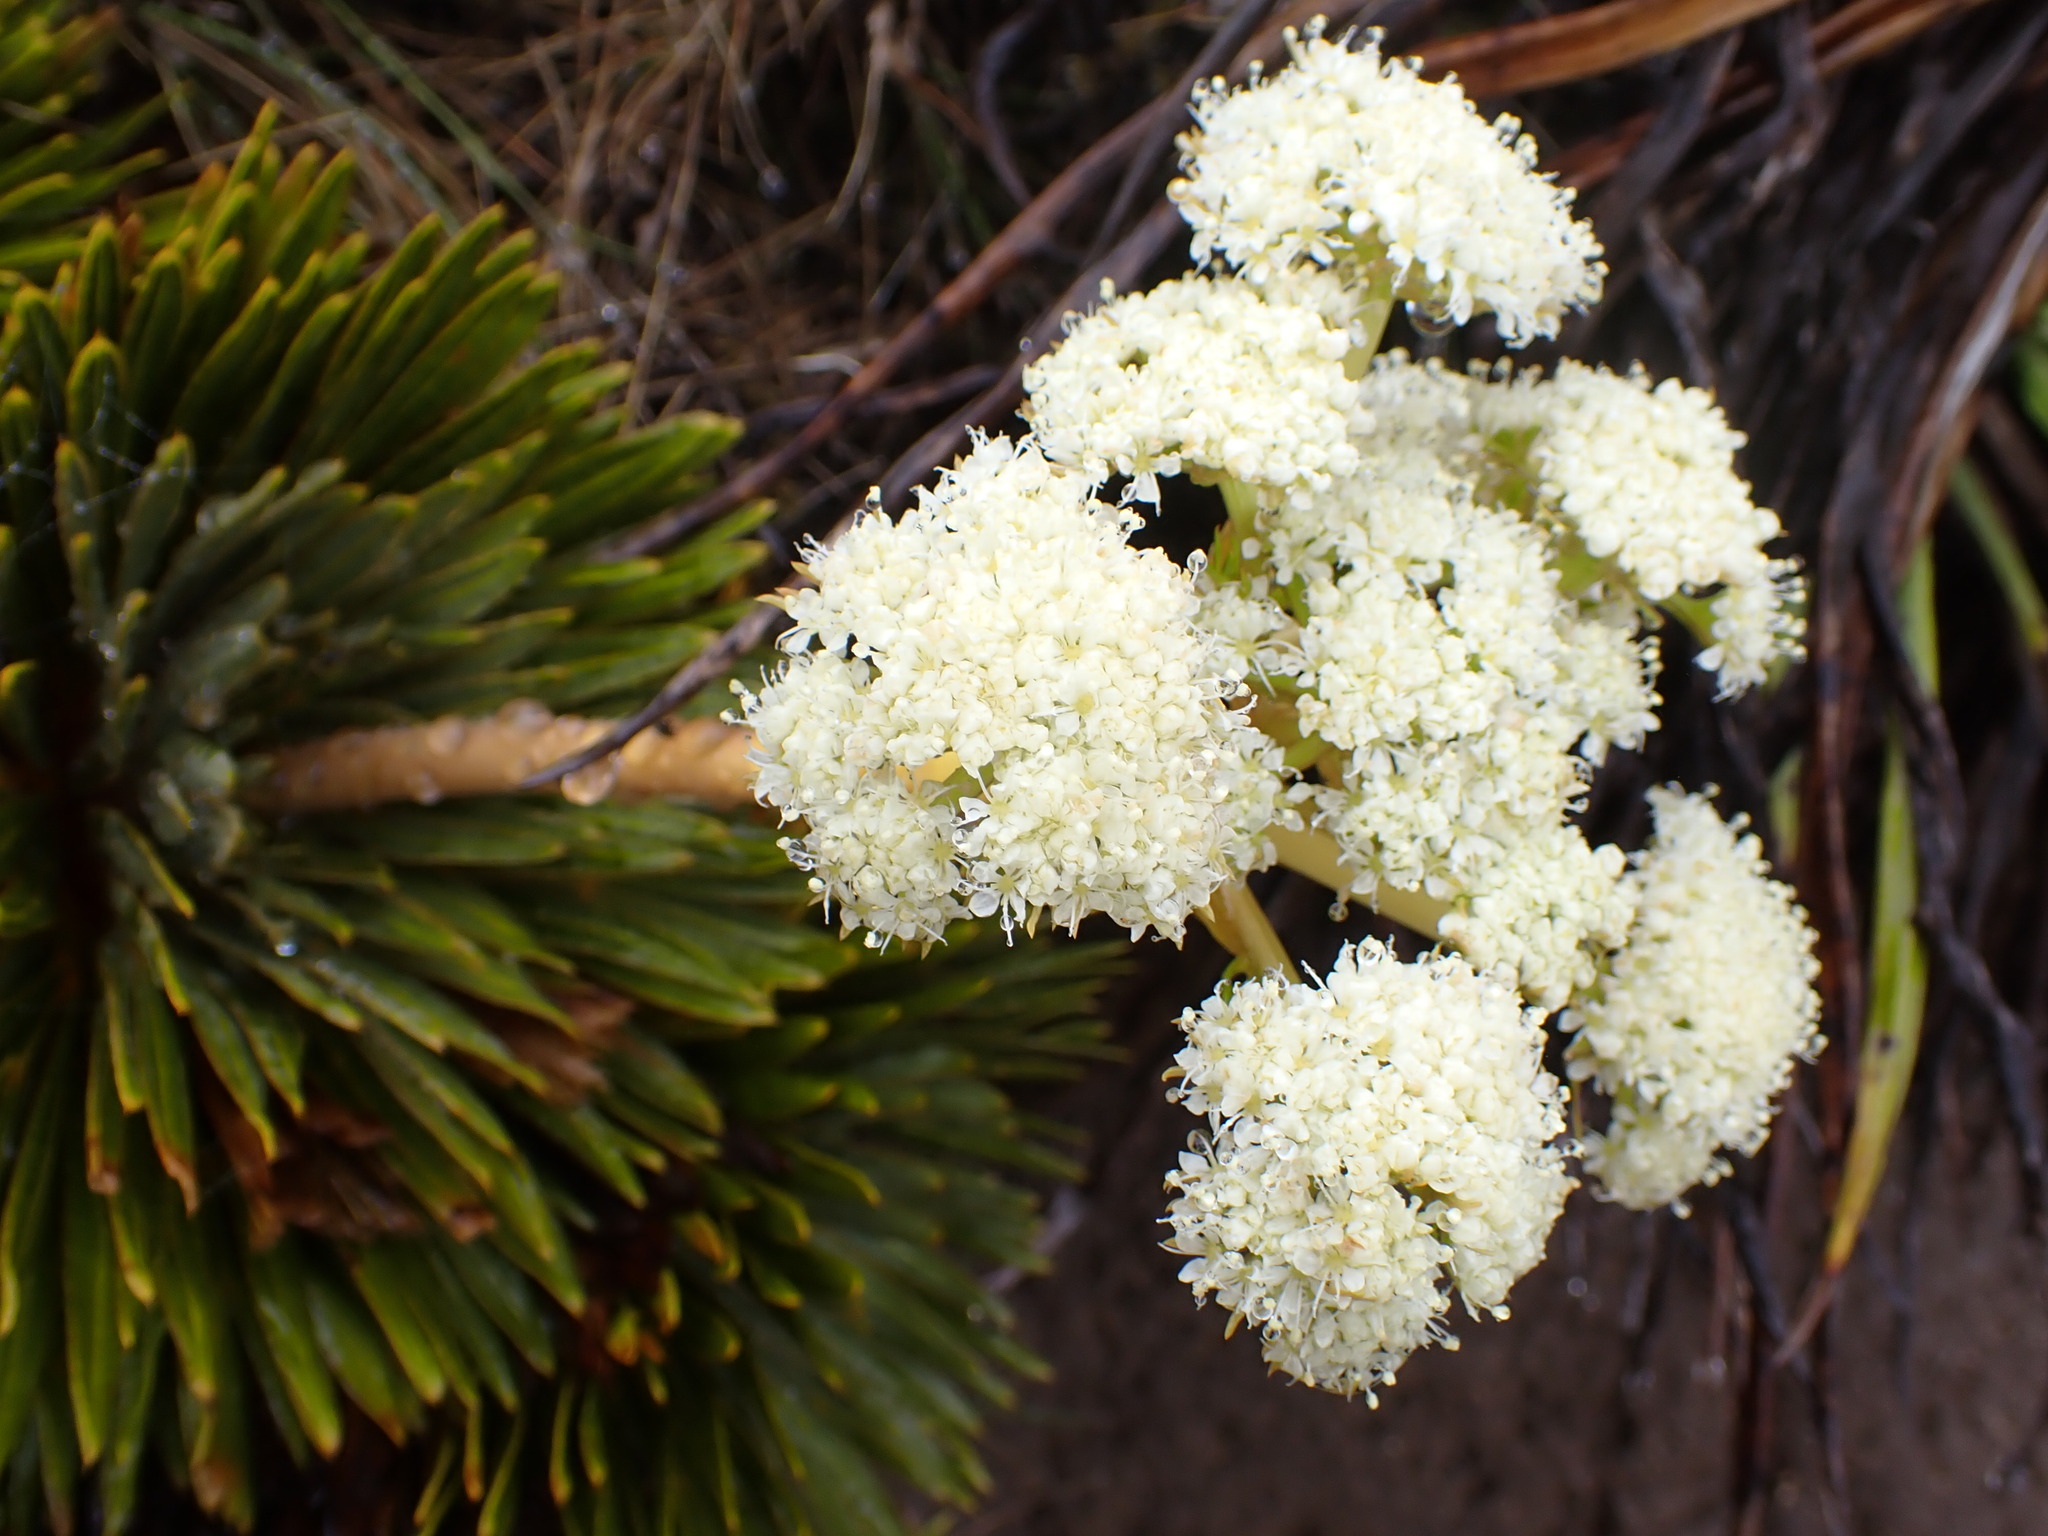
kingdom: Plantae
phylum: Tracheophyta
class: Magnoliopsida
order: Apiales
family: Apiaceae
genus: Aciphylla
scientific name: Aciphylla crosby-smithii
